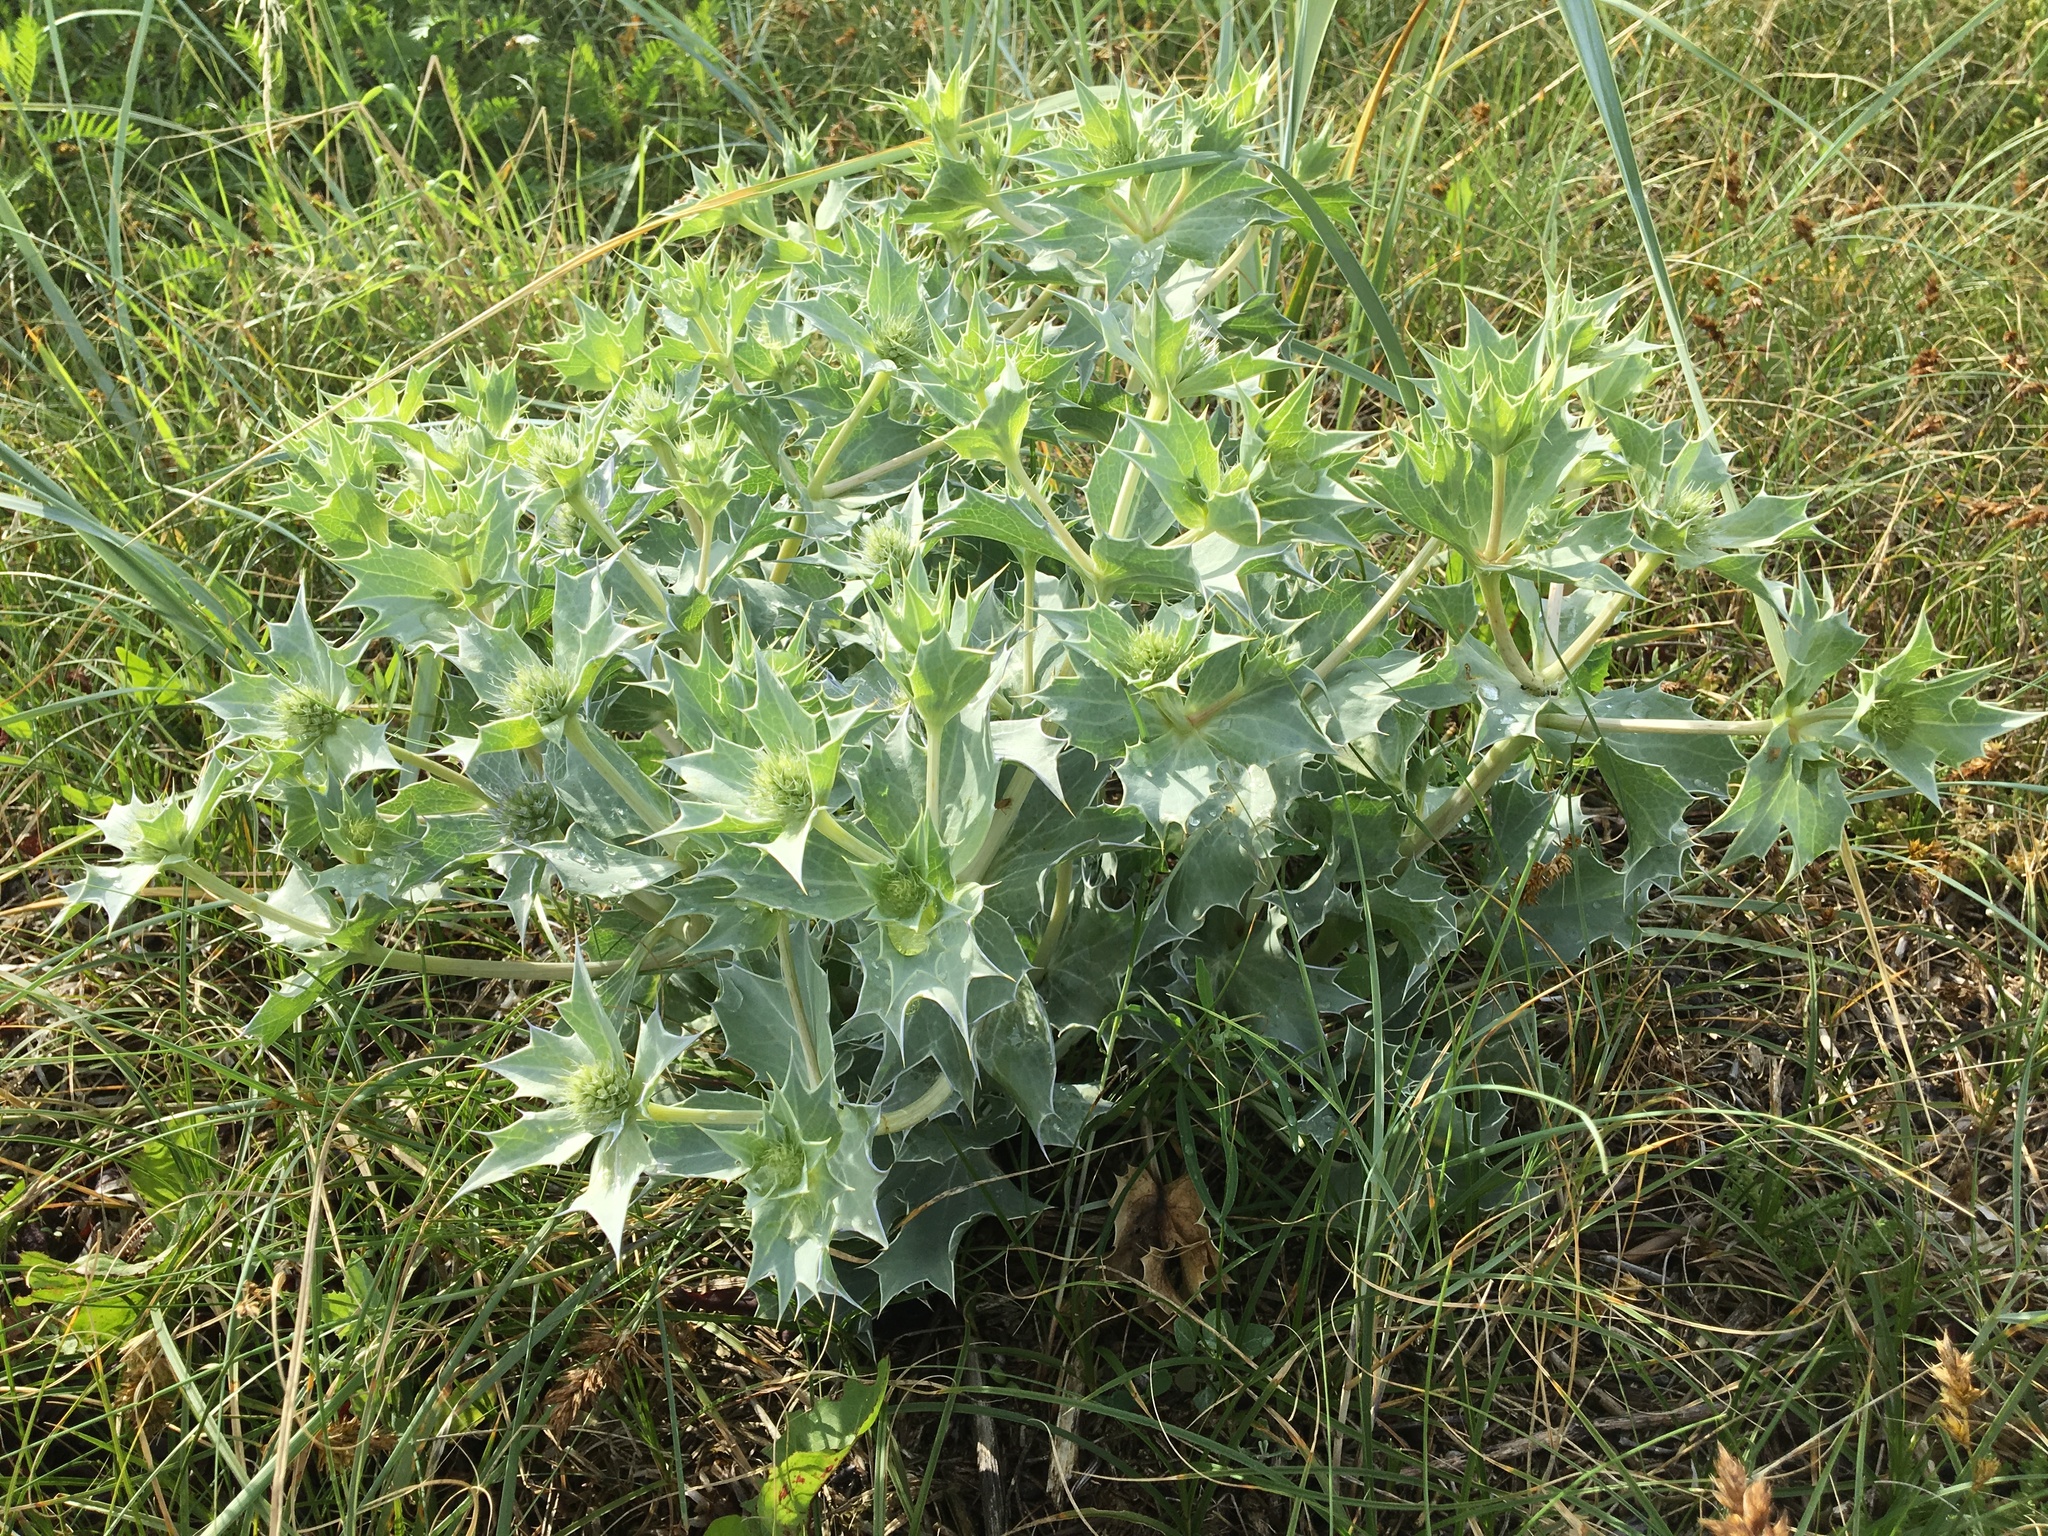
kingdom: Plantae
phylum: Tracheophyta
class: Magnoliopsida
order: Apiales
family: Apiaceae
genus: Eryngium
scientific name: Eryngium maritimum
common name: Sea-holly
